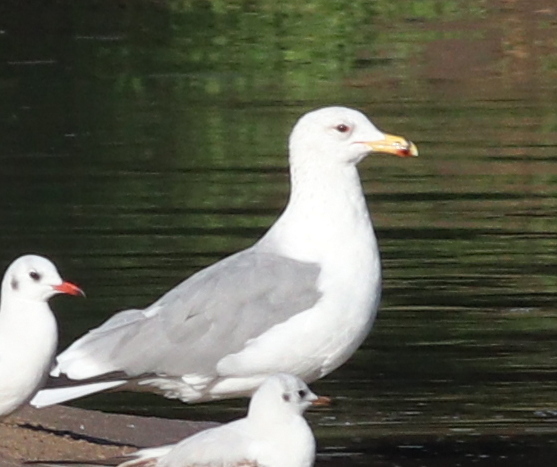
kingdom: Animalia
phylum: Chordata
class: Aves
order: Charadriiformes
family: Laridae
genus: Larus
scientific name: Larus armenicus
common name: Armenian gull
